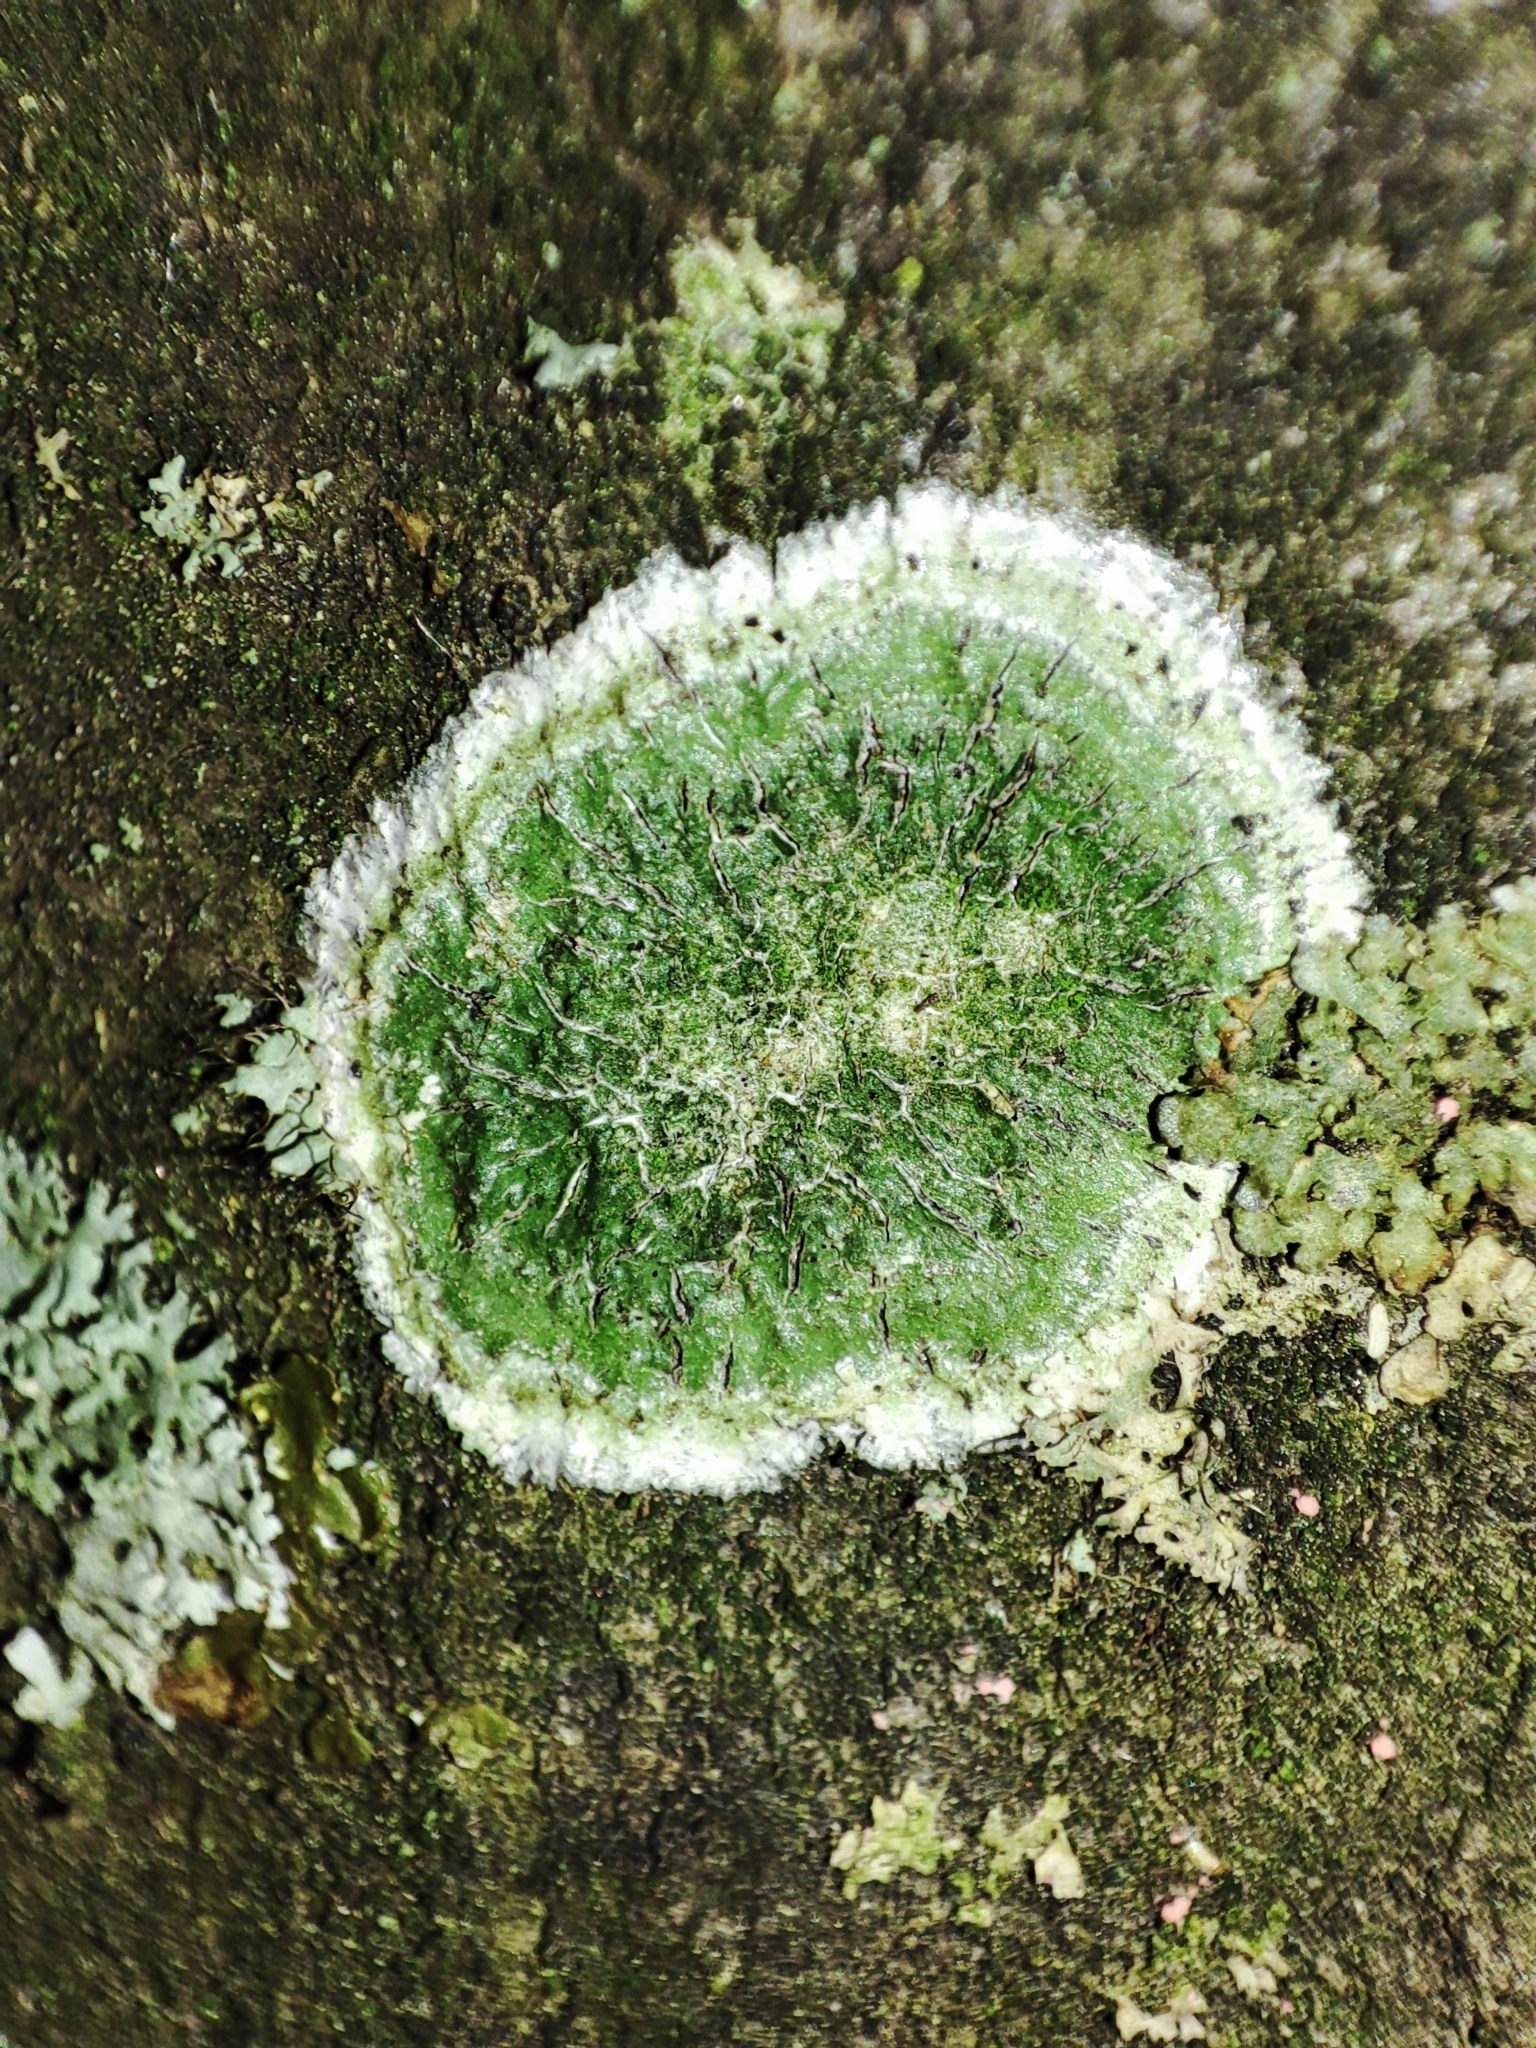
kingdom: Fungi
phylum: Ascomycota
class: Lecanoromycetes
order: Pertusariales
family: Pertusariaceae
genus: Lepra
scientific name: Lepra albescens
